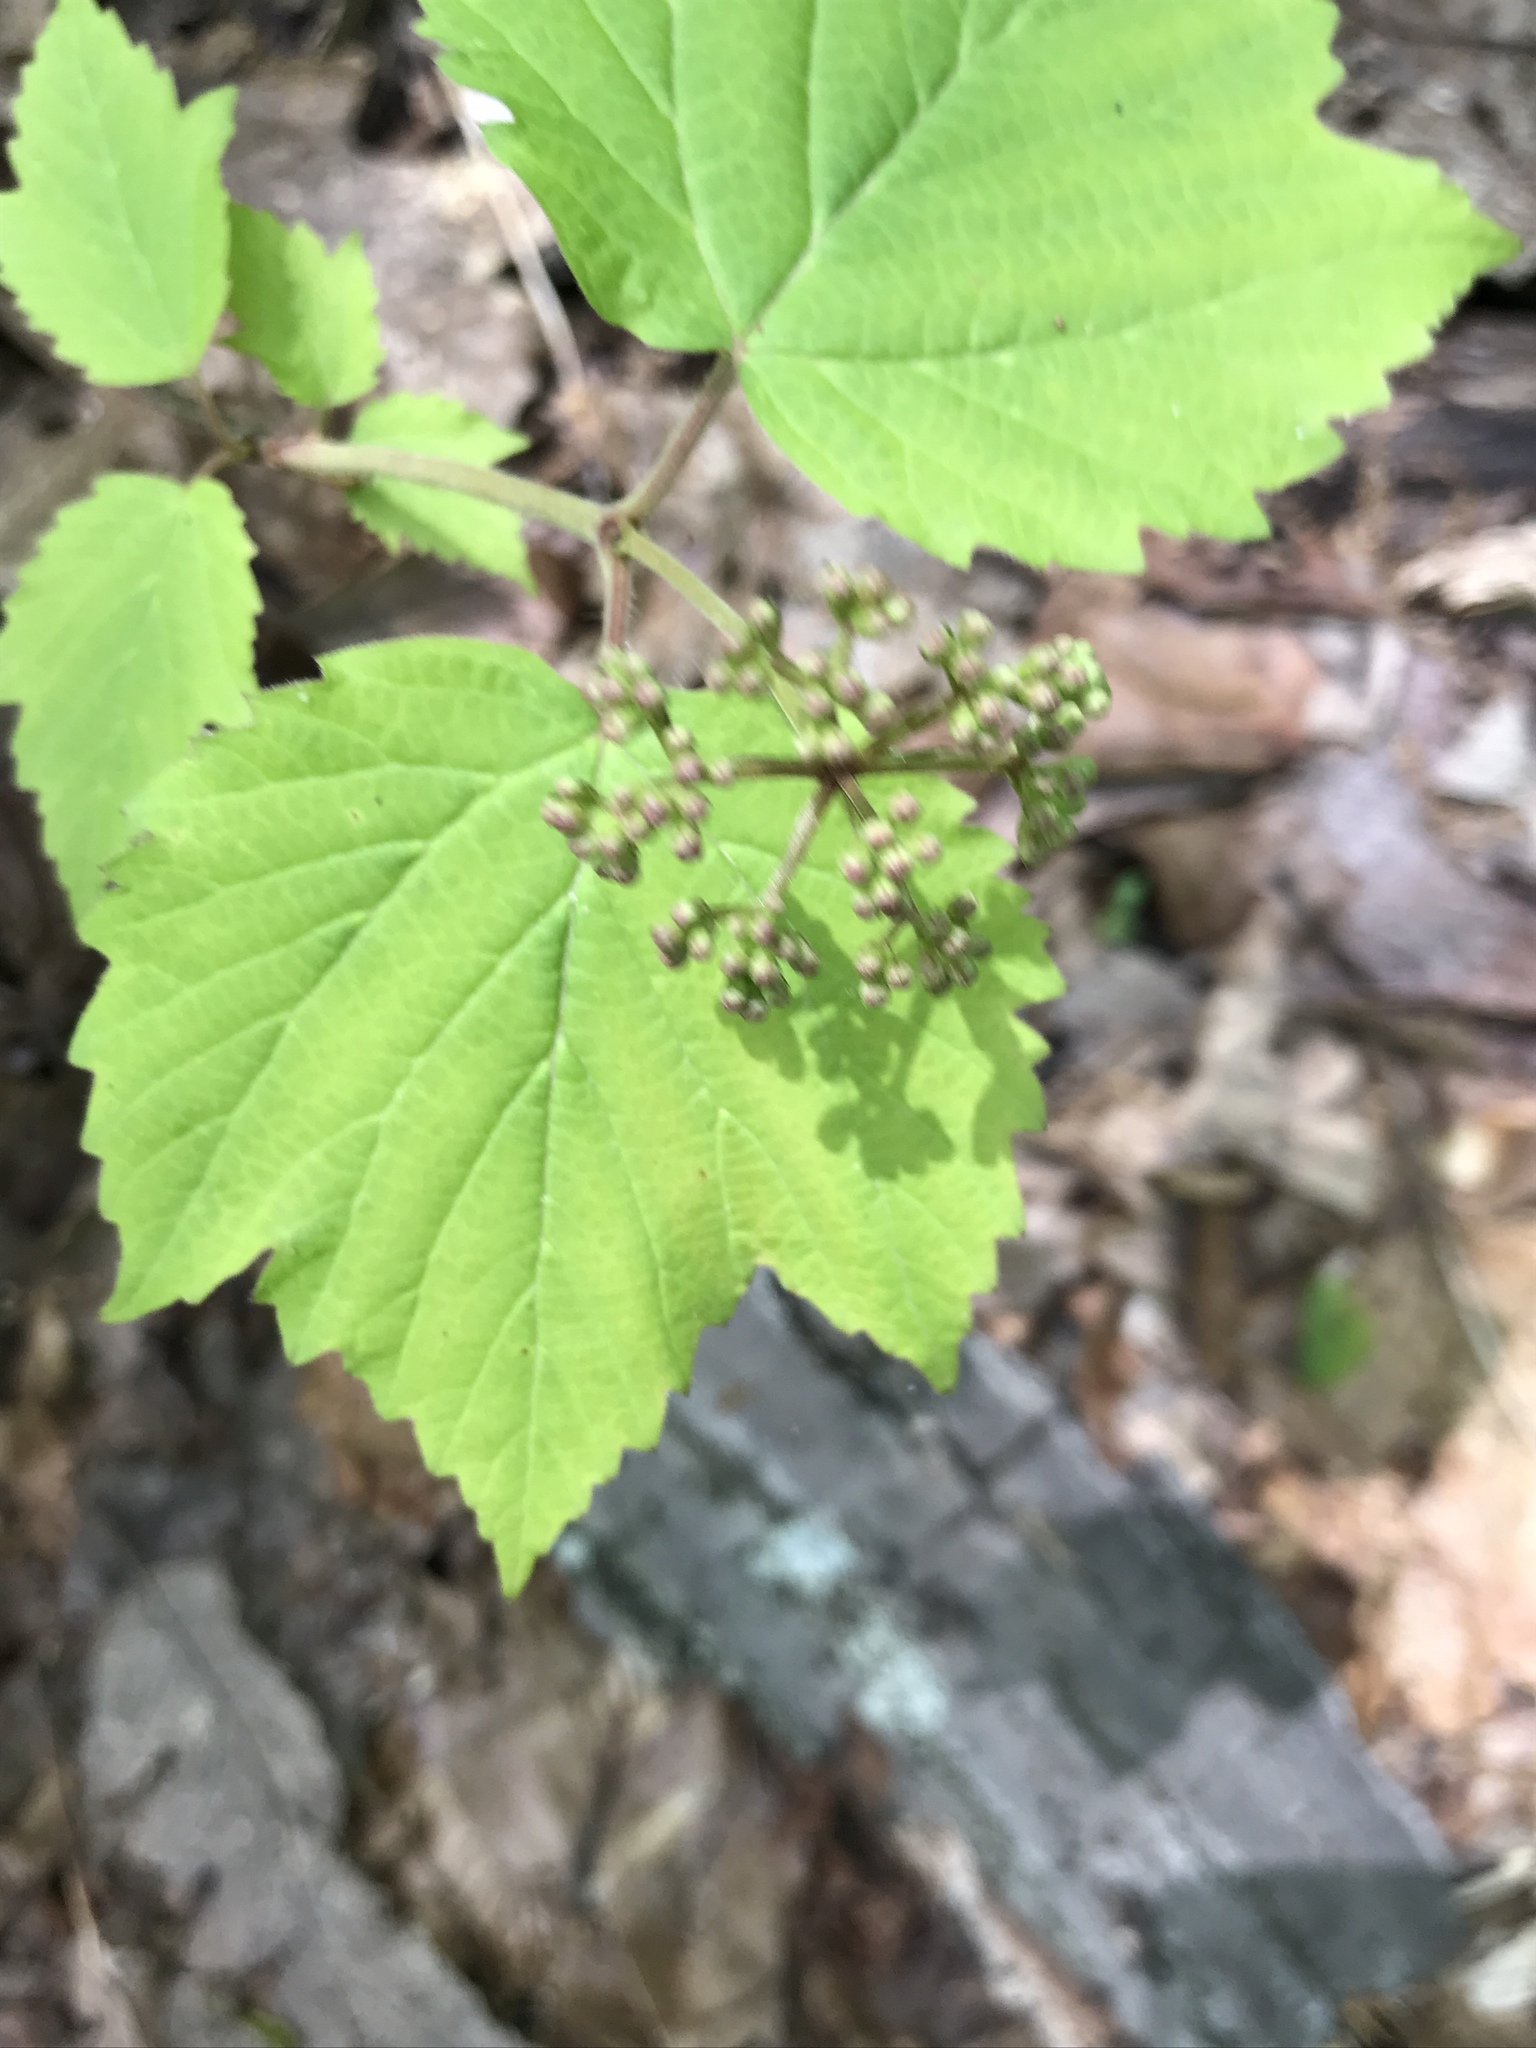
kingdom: Plantae
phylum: Tracheophyta
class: Magnoliopsida
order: Dipsacales
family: Viburnaceae
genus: Viburnum
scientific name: Viburnum acerifolium
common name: Dockmackie
